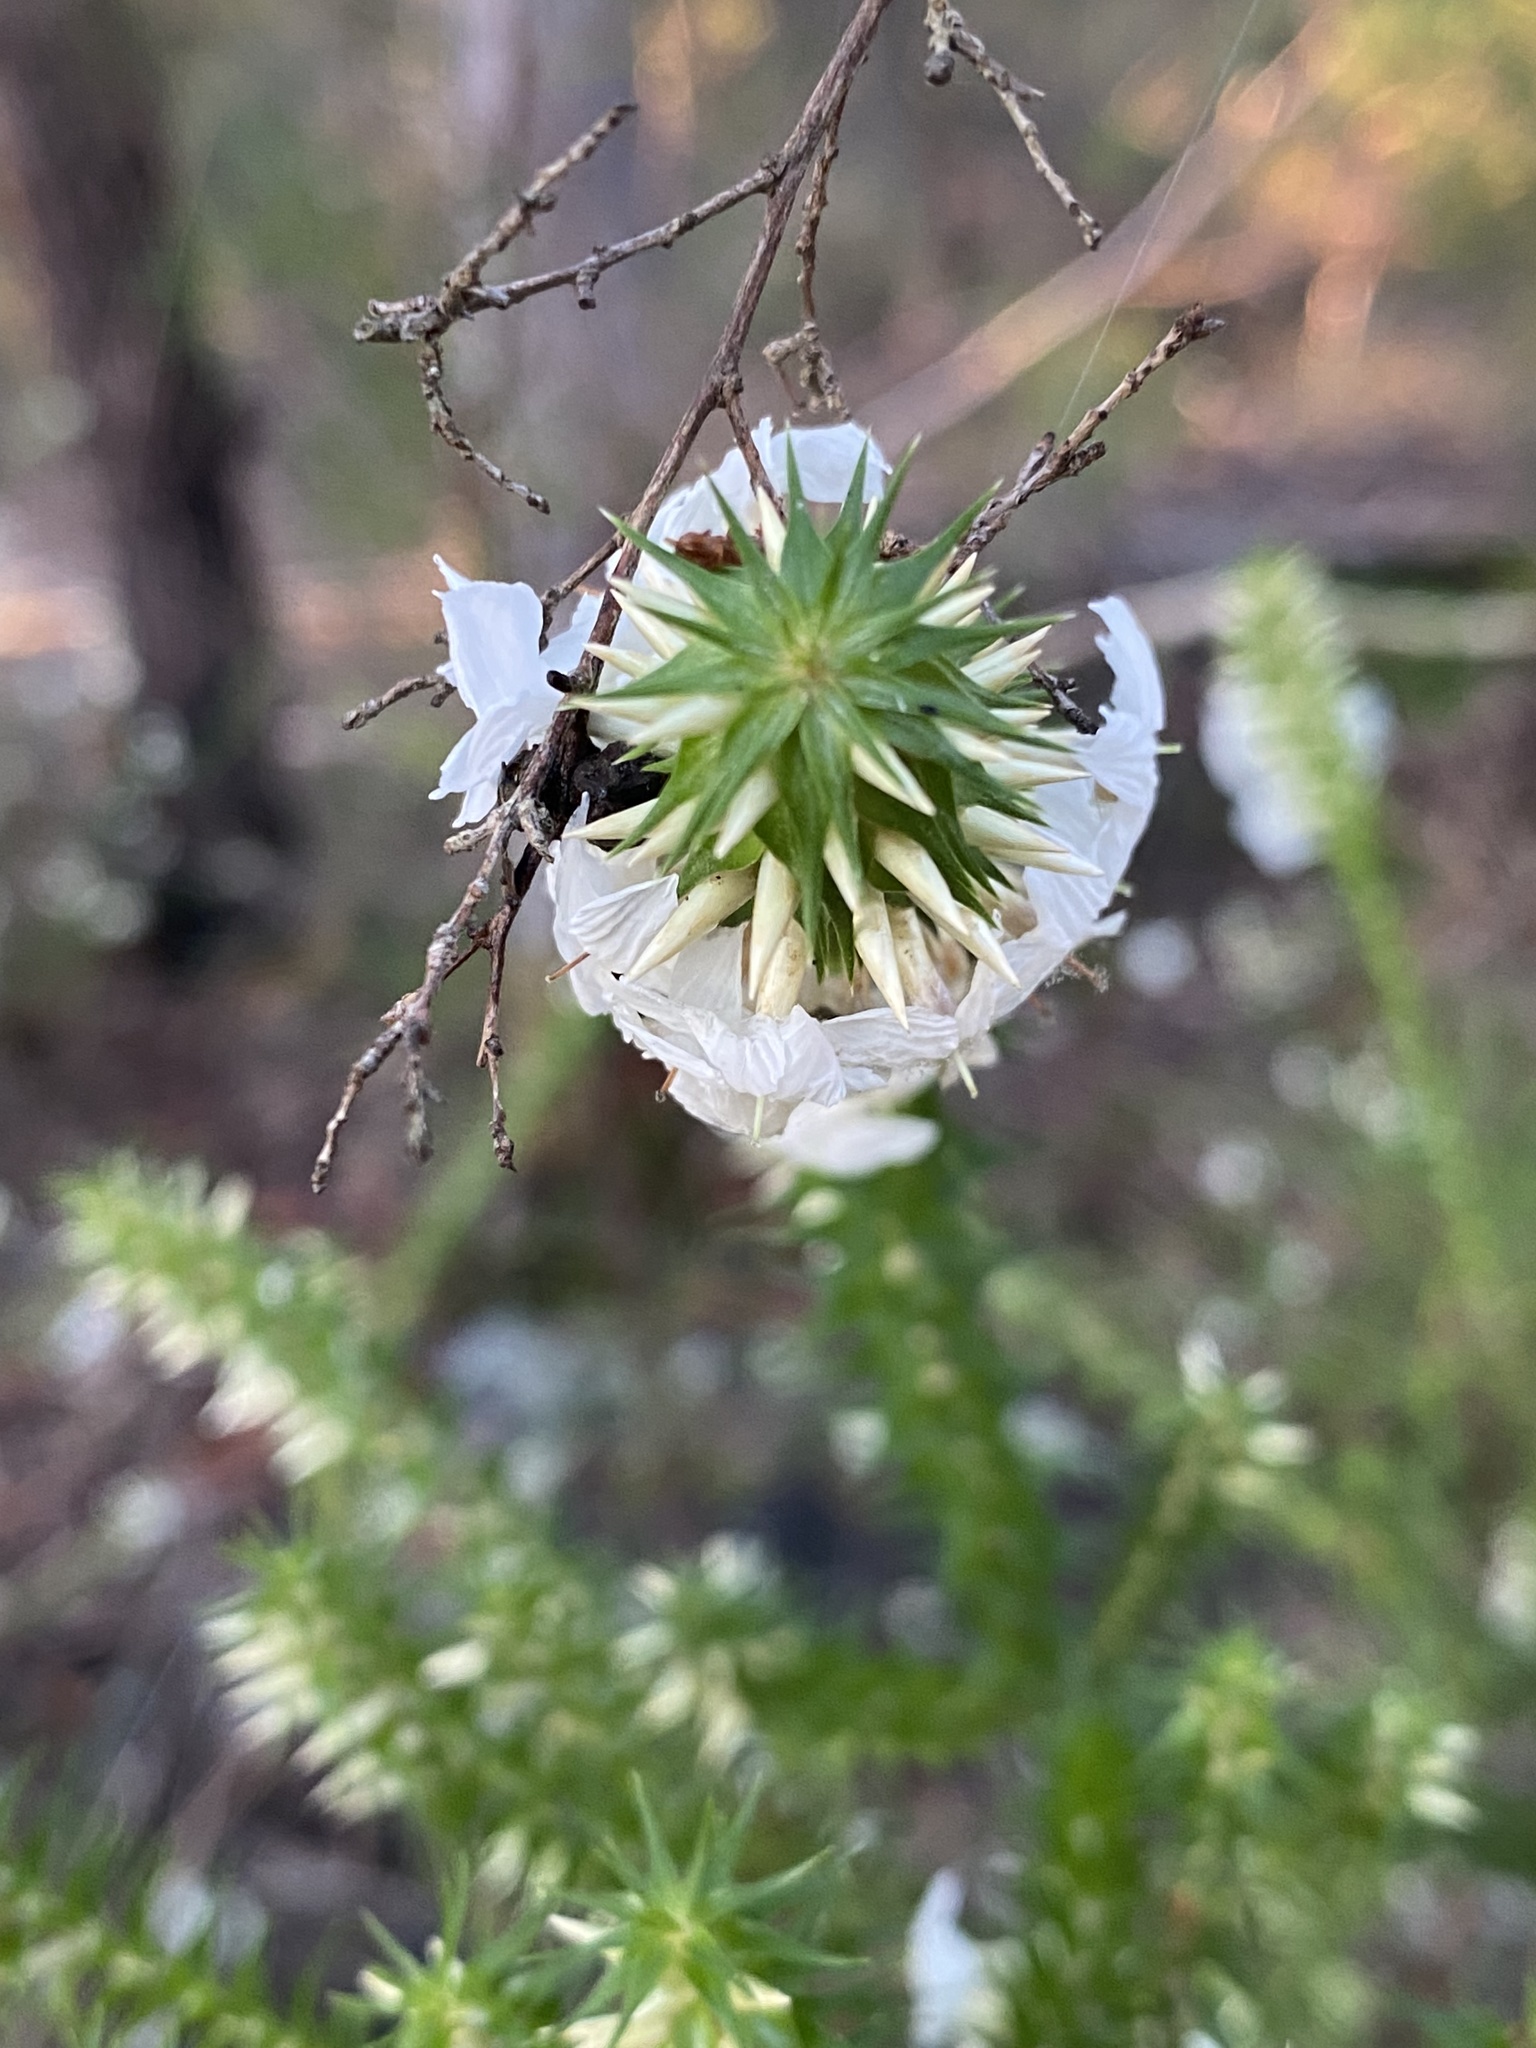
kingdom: Plantae
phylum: Tracheophyta
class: Magnoliopsida
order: Ericales
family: Ericaceae
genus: Woollsia
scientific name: Woollsia pungens
